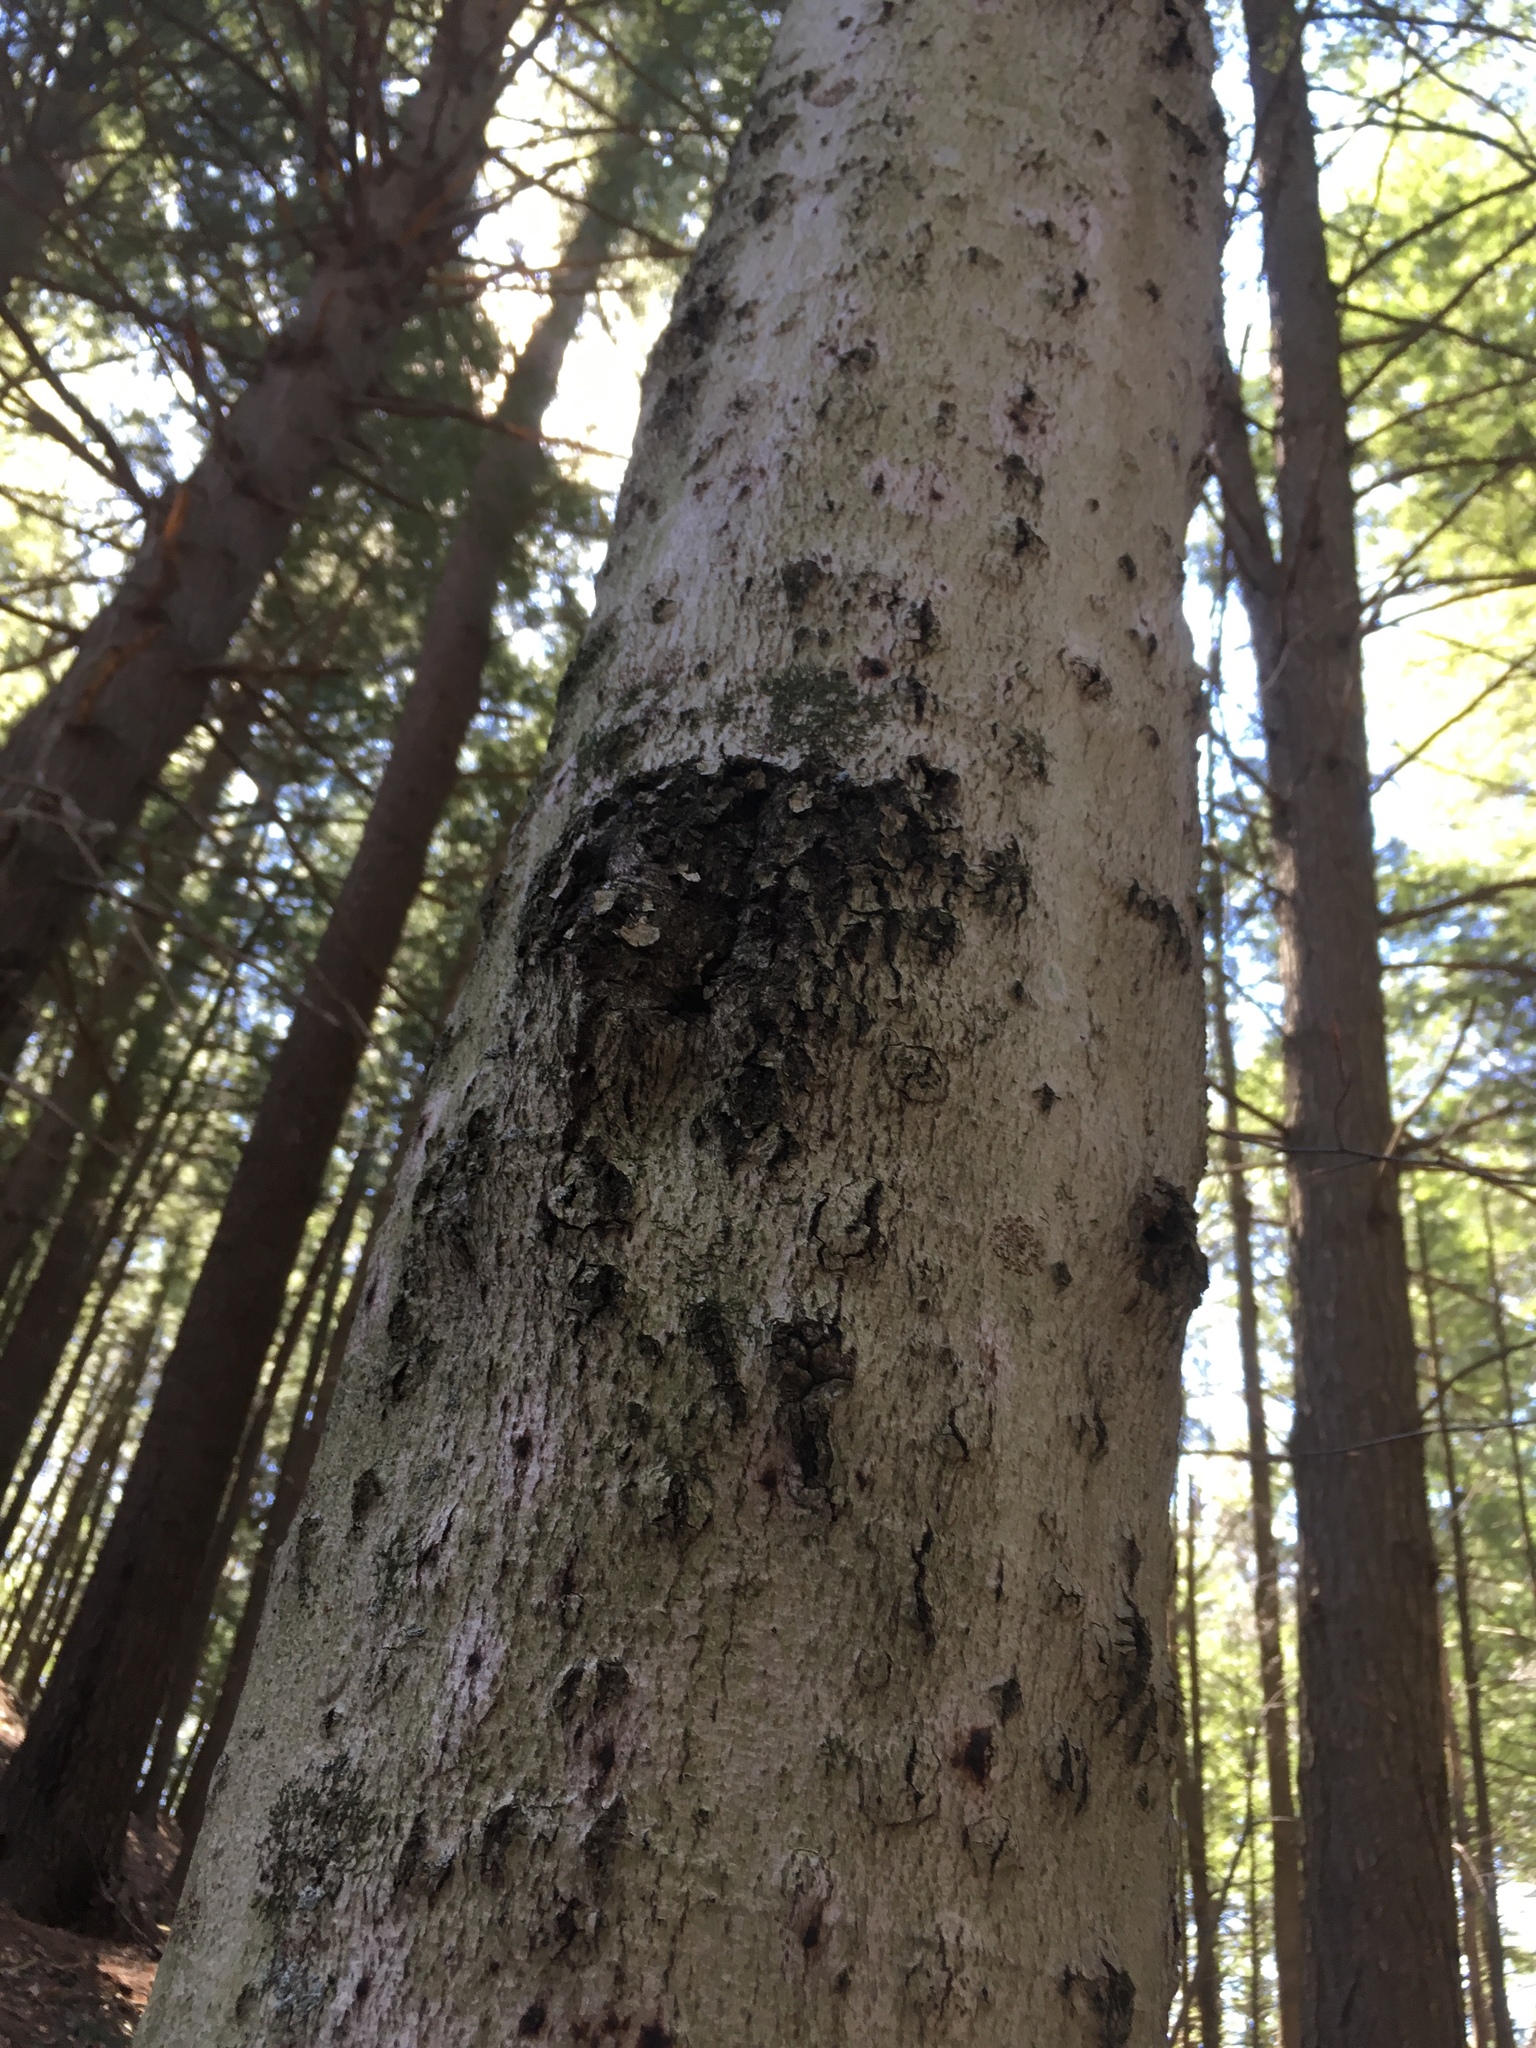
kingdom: Plantae
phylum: Tracheophyta
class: Magnoliopsida
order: Fagales
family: Fagaceae
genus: Fagus
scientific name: Fagus grandifolia
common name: American beech
